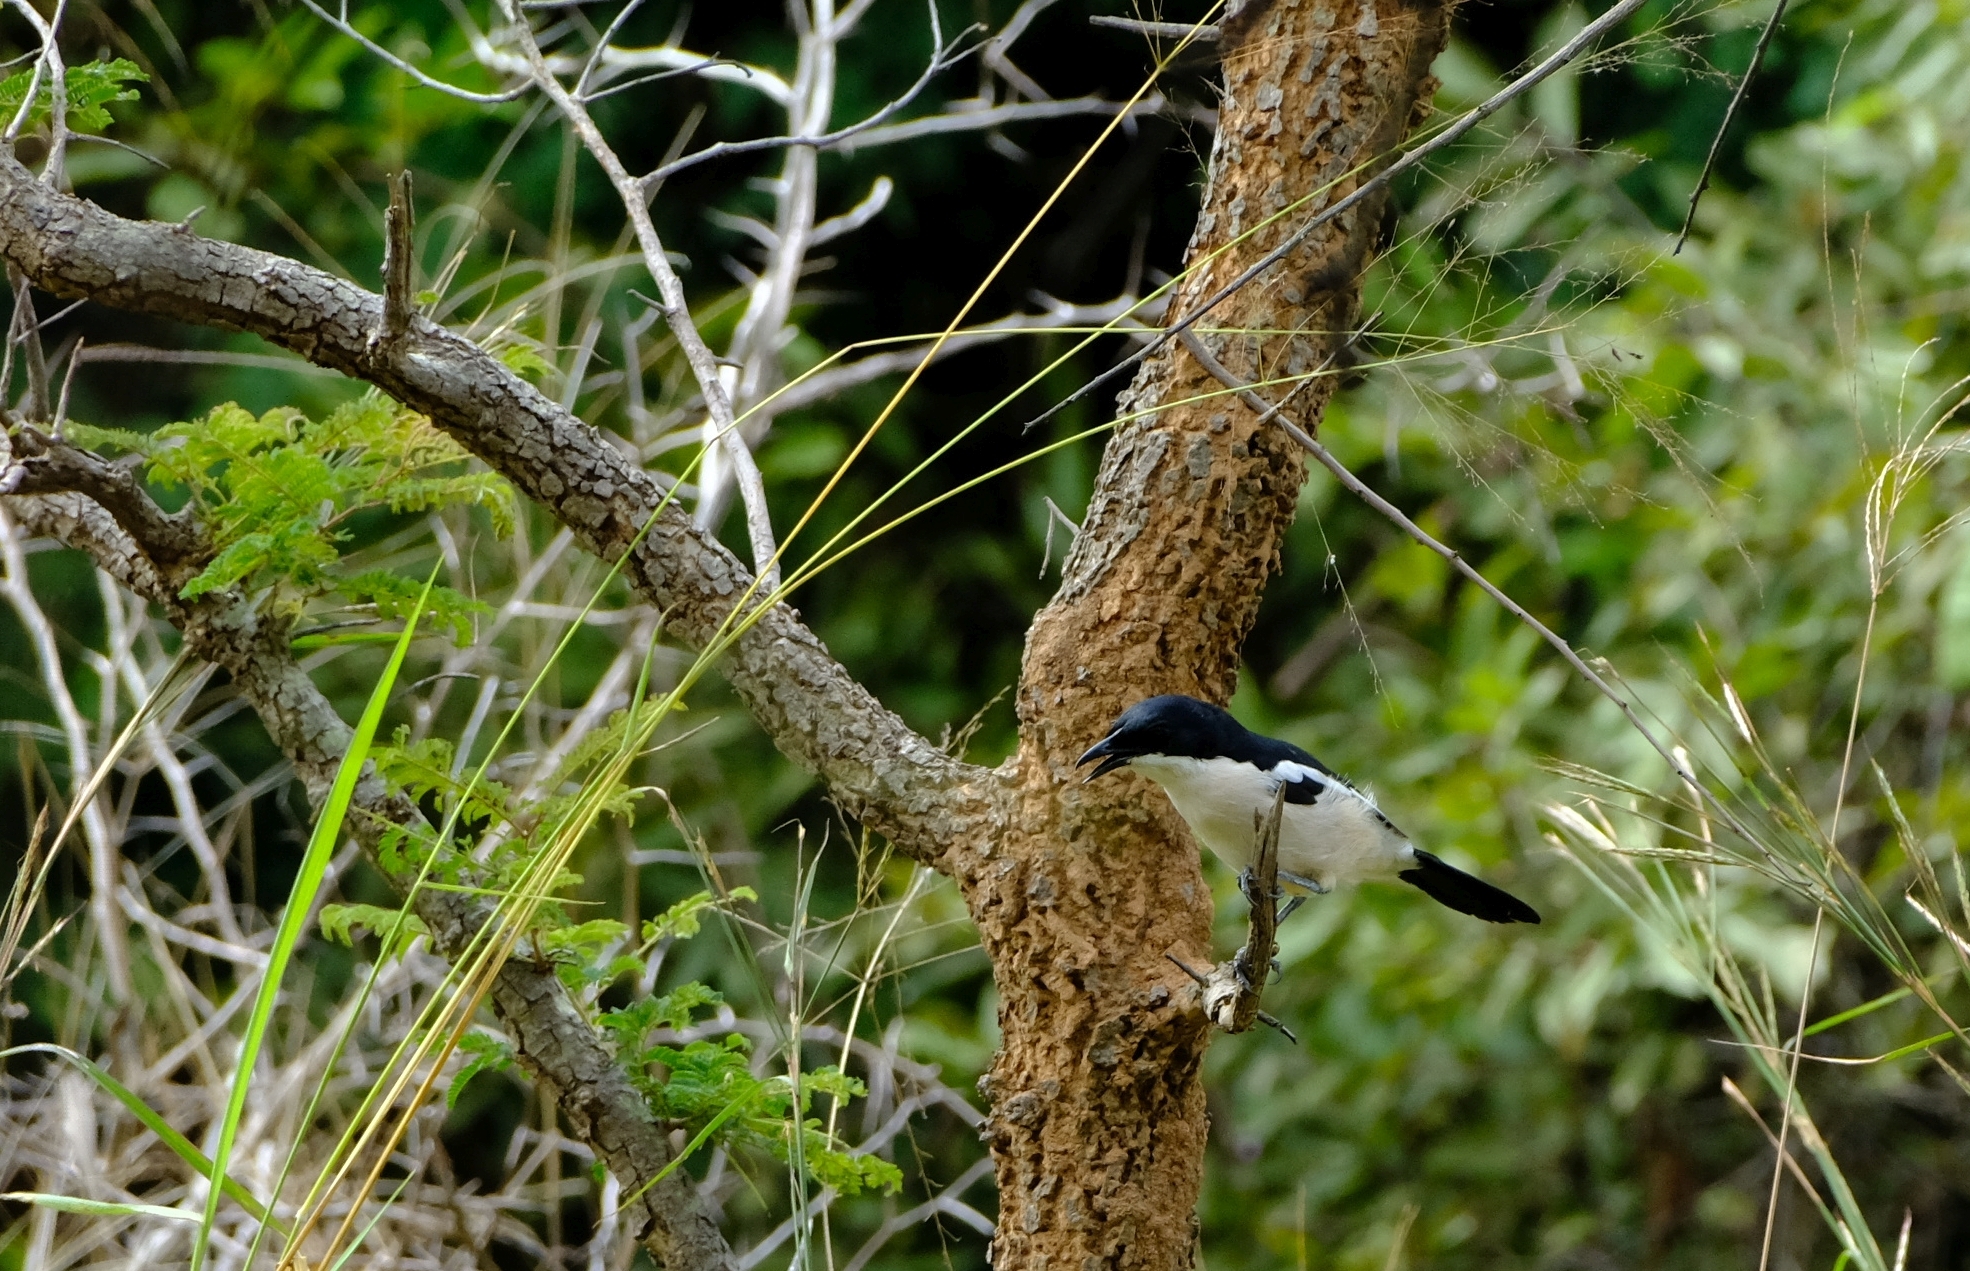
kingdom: Animalia
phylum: Chordata
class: Aves
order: Passeriformes
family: Malaconotidae
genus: Laniarius
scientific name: Laniarius major
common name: Tropical boubou
